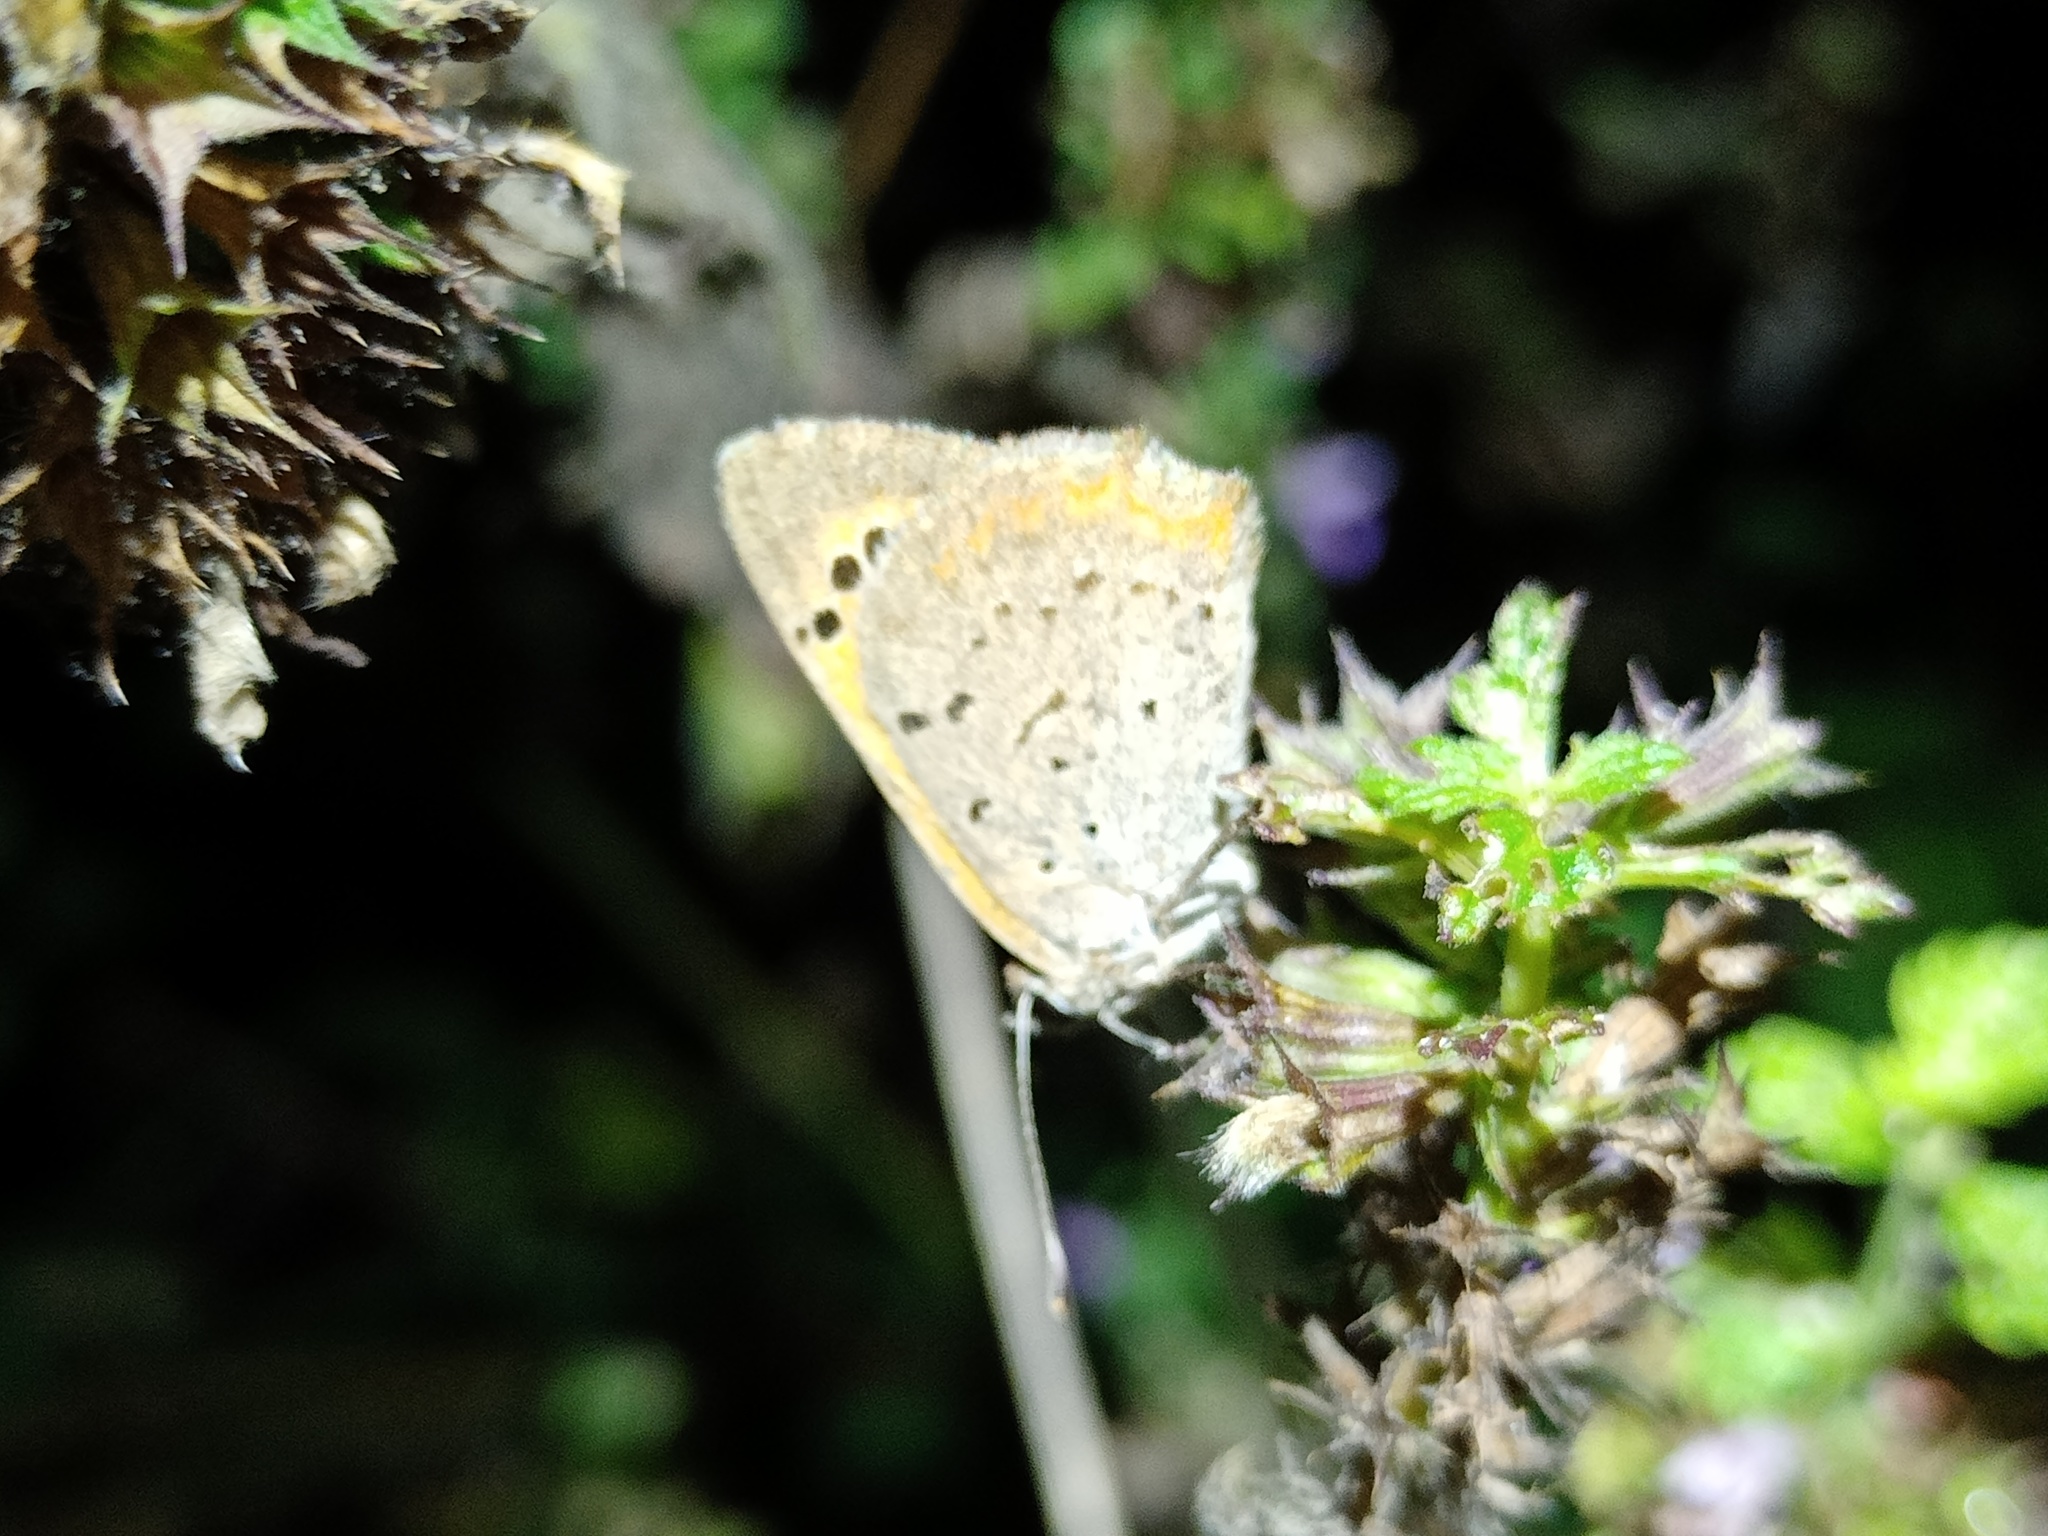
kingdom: Animalia
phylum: Arthropoda
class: Insecta
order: Lepidoptera
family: Lycaenidae
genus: Lycaena
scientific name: Lycaena phlaeas
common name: Small copper
